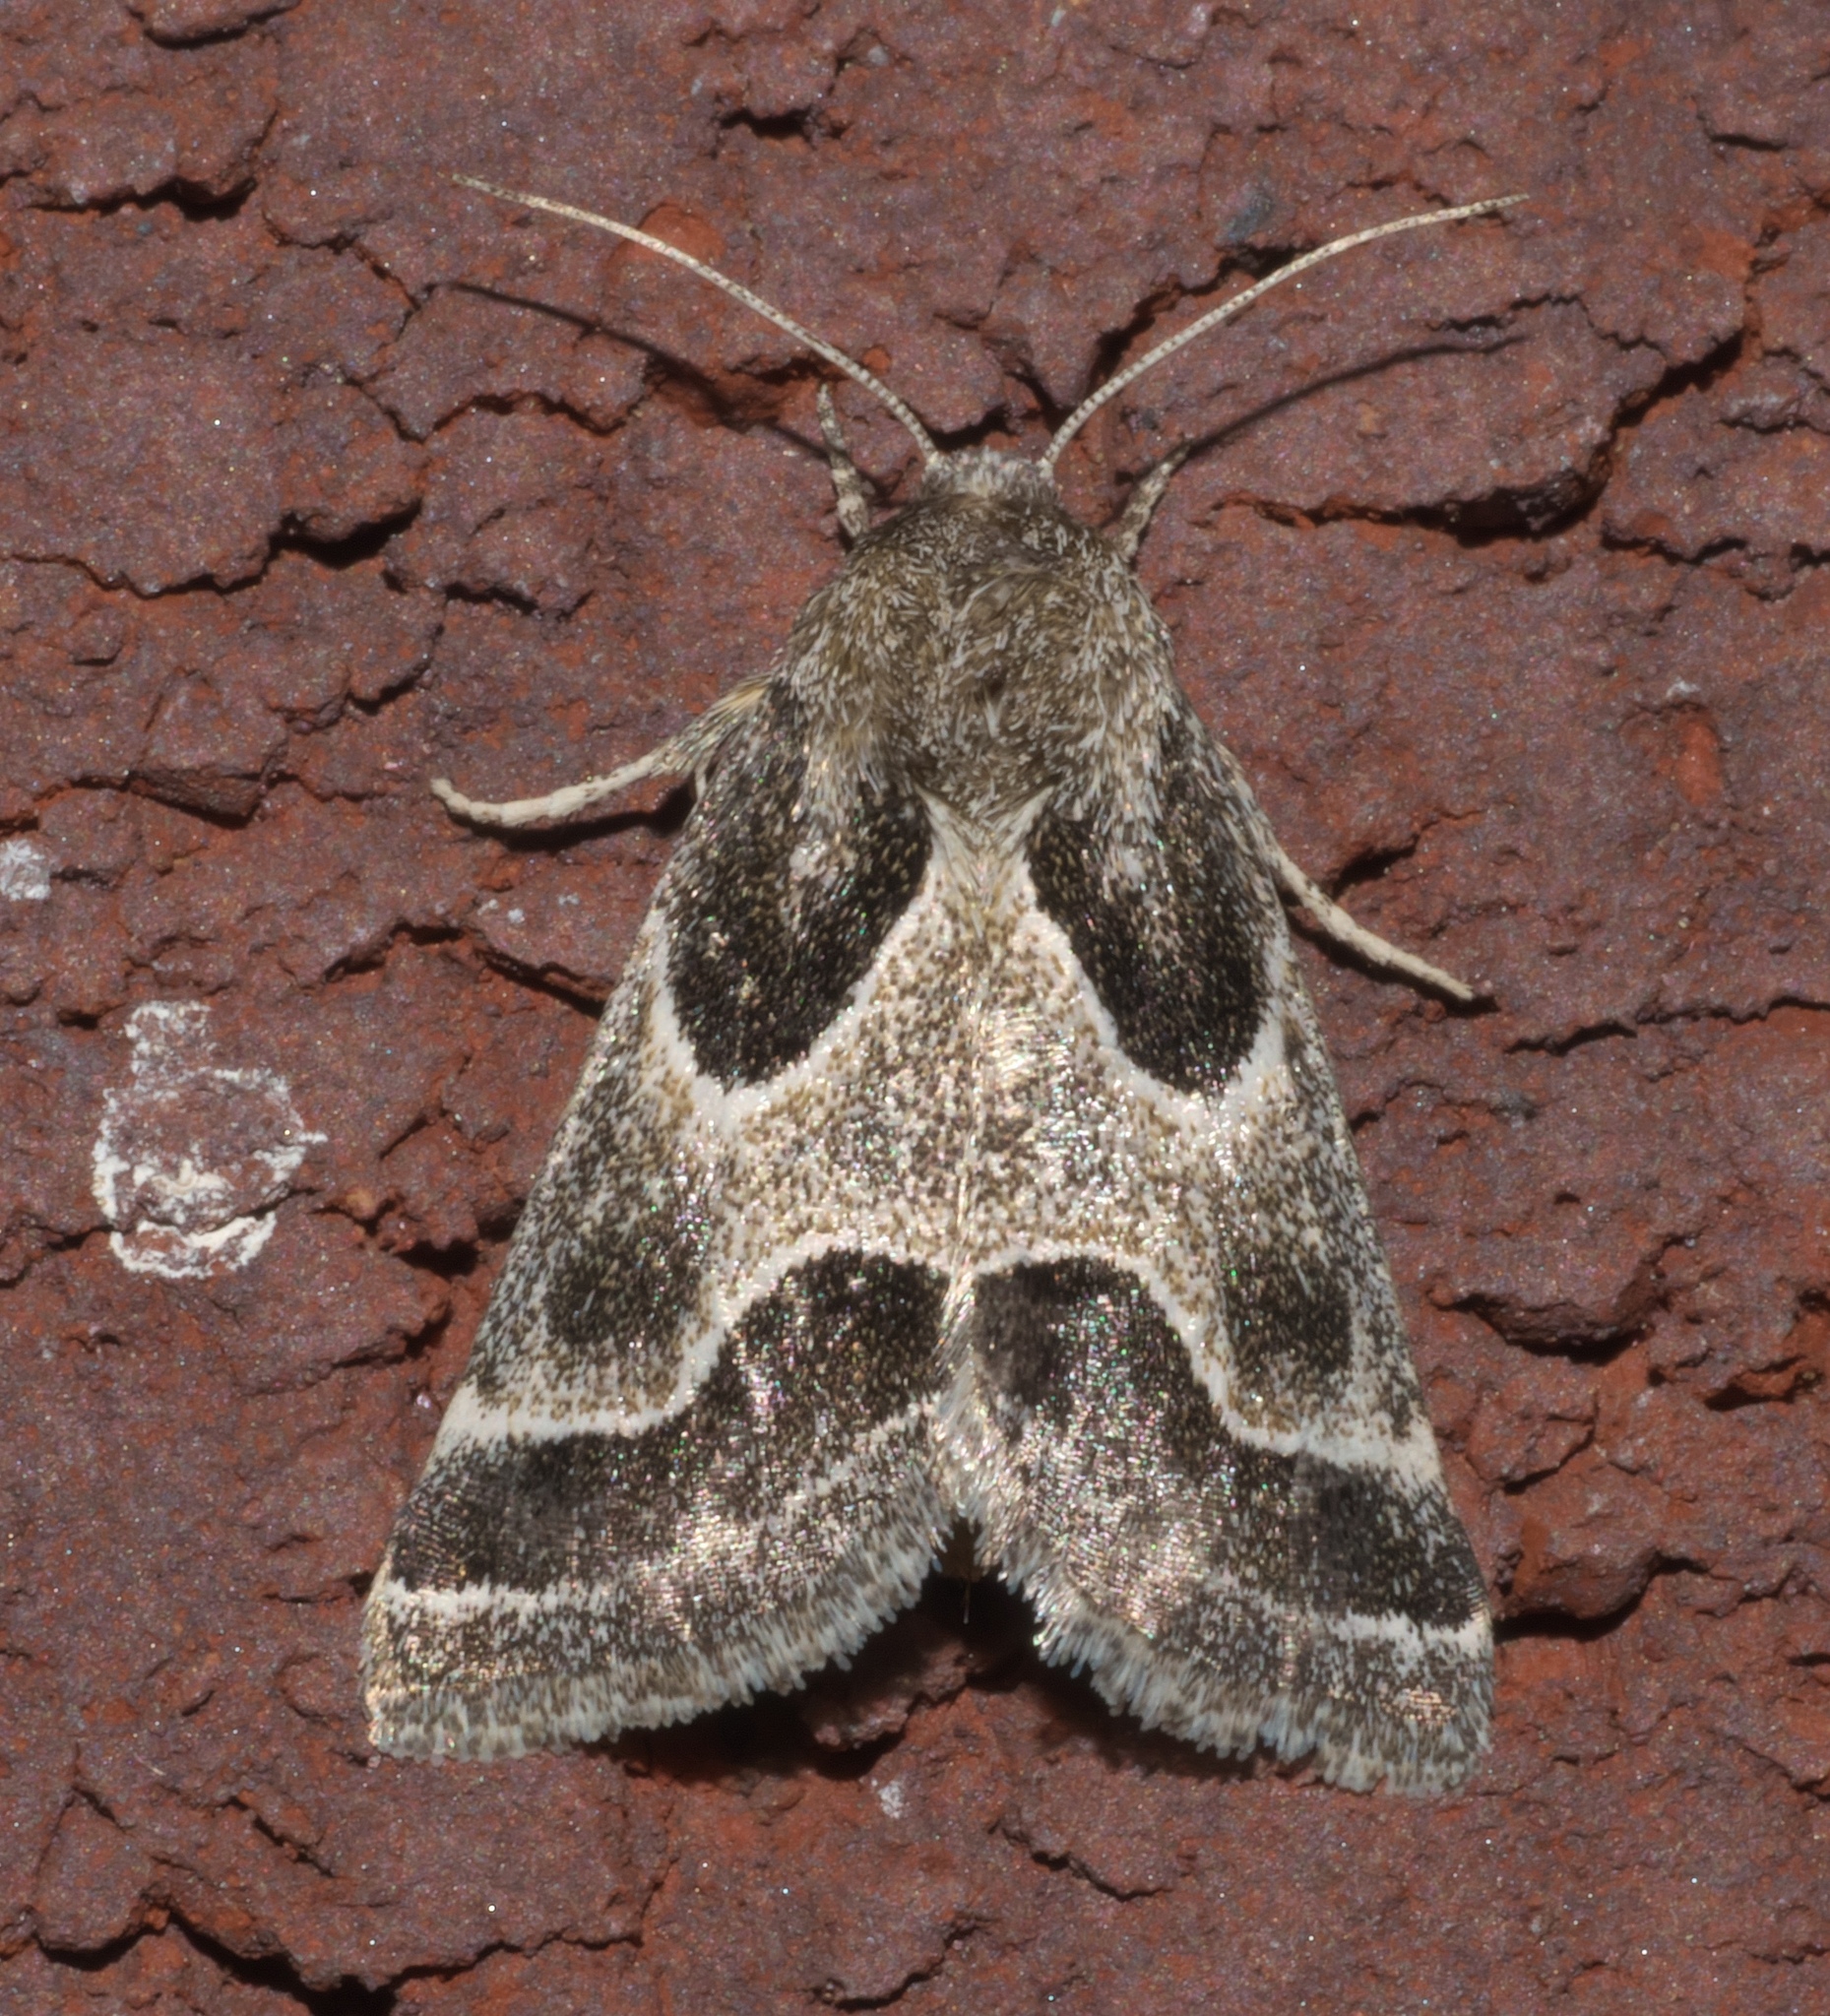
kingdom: Animalia
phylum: Arthropoda
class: Insecta
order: Lepidoptera
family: Noctuidae
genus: Schinia
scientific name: Schinia rivulosa
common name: Scarce meal-moth
